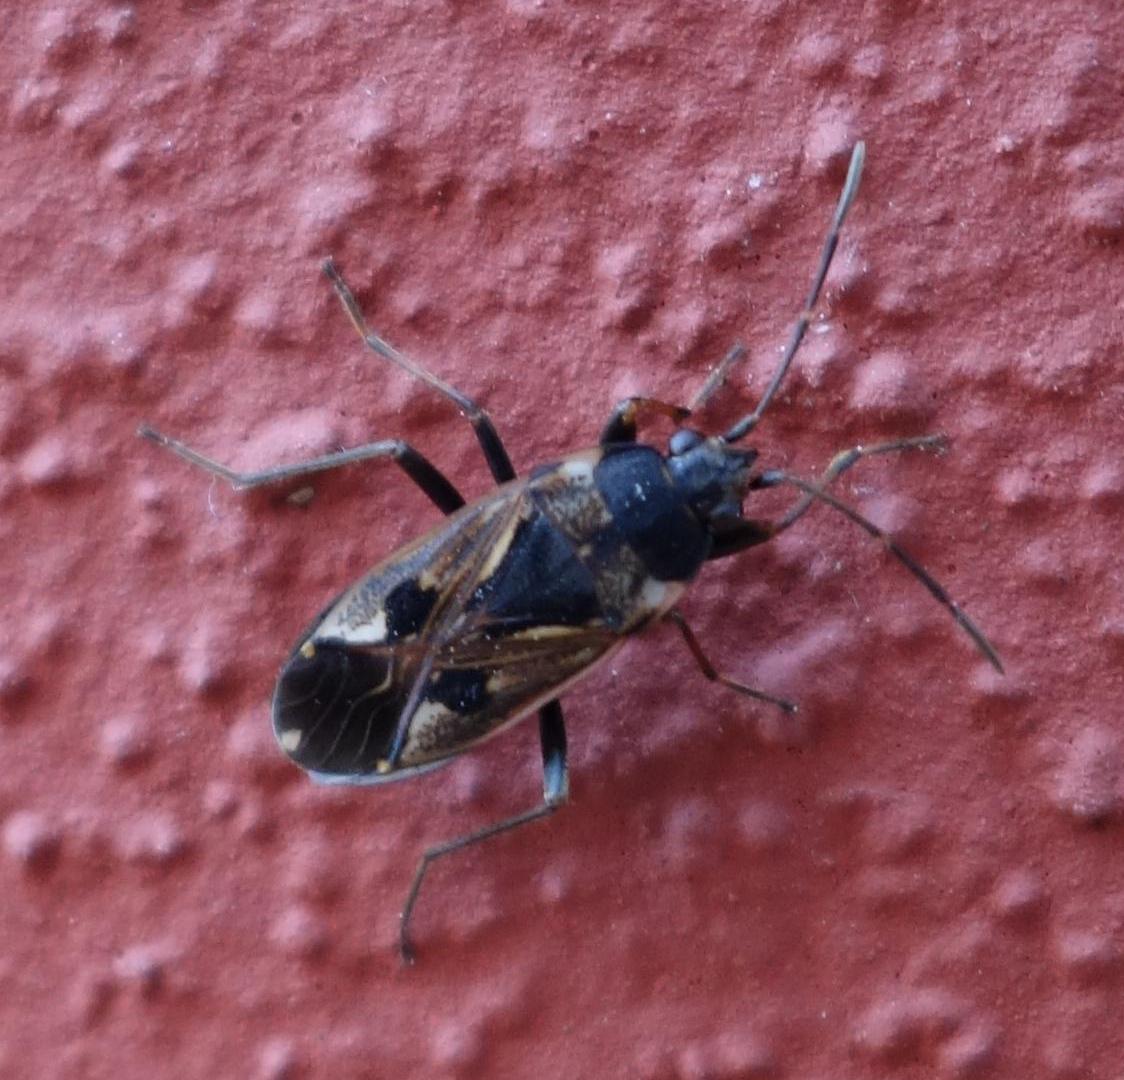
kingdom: Animalia
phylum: Arthropoda
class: Insecta
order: Hemiptera
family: Rhyparochromidae
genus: Rhyparochromus
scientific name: Rhyparochromus vulgaris
